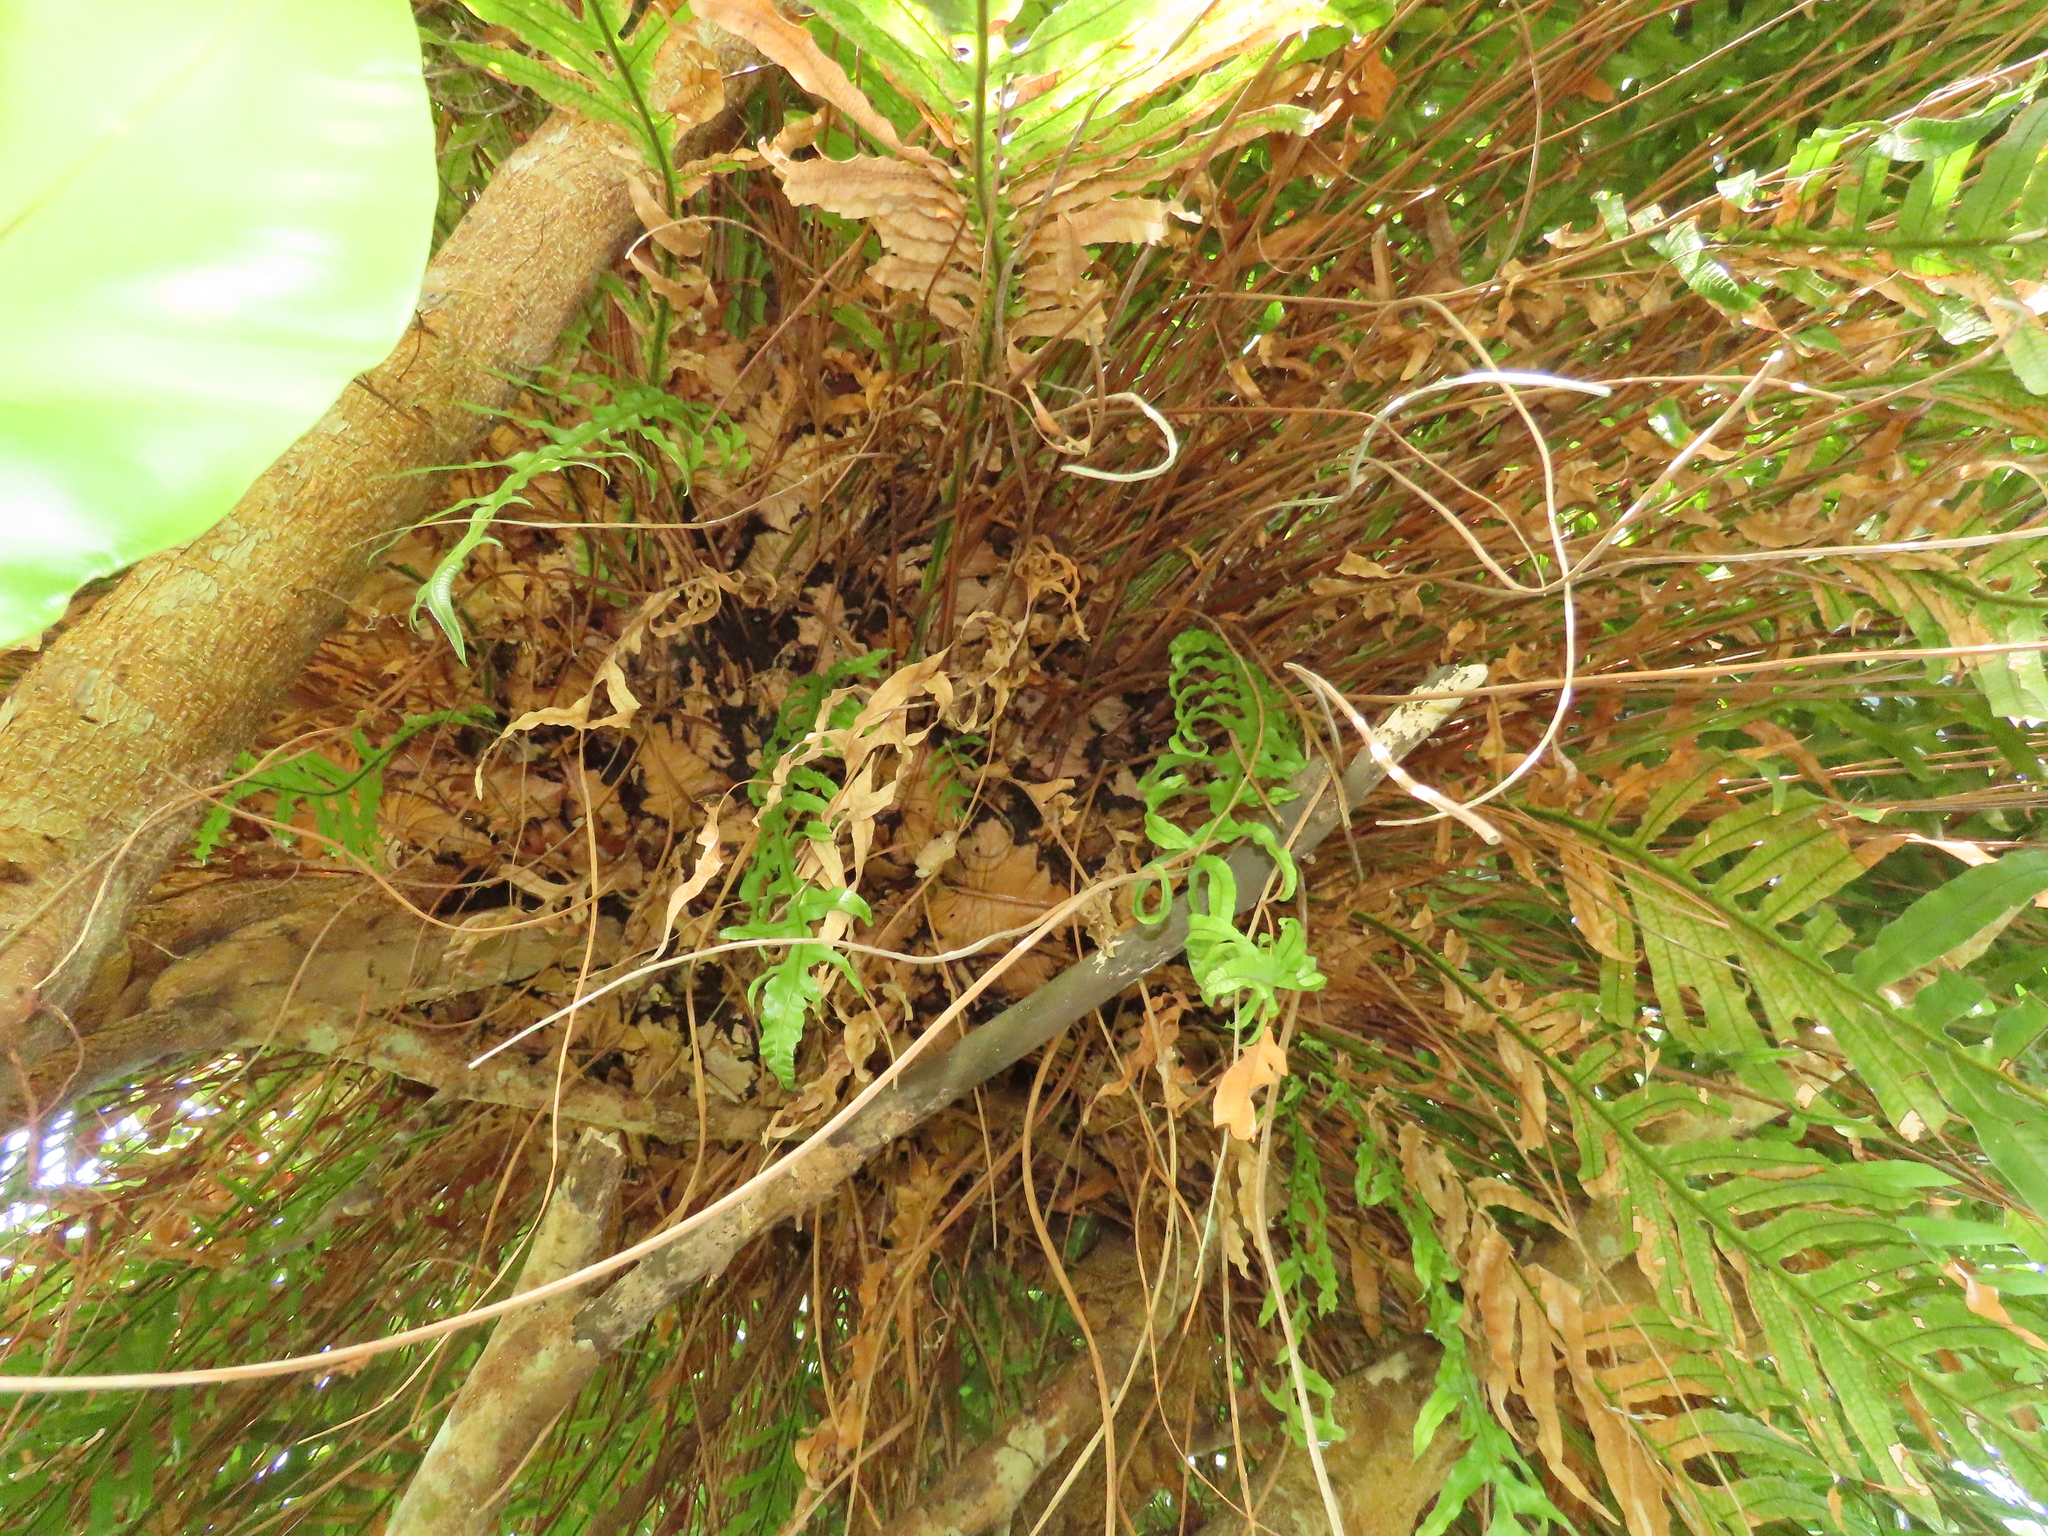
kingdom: Plantae
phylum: Tracheophyta
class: Polypodiopsida
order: Polypodiales
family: Polypodiaceae
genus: Drynaria
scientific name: Drynaria coronans
